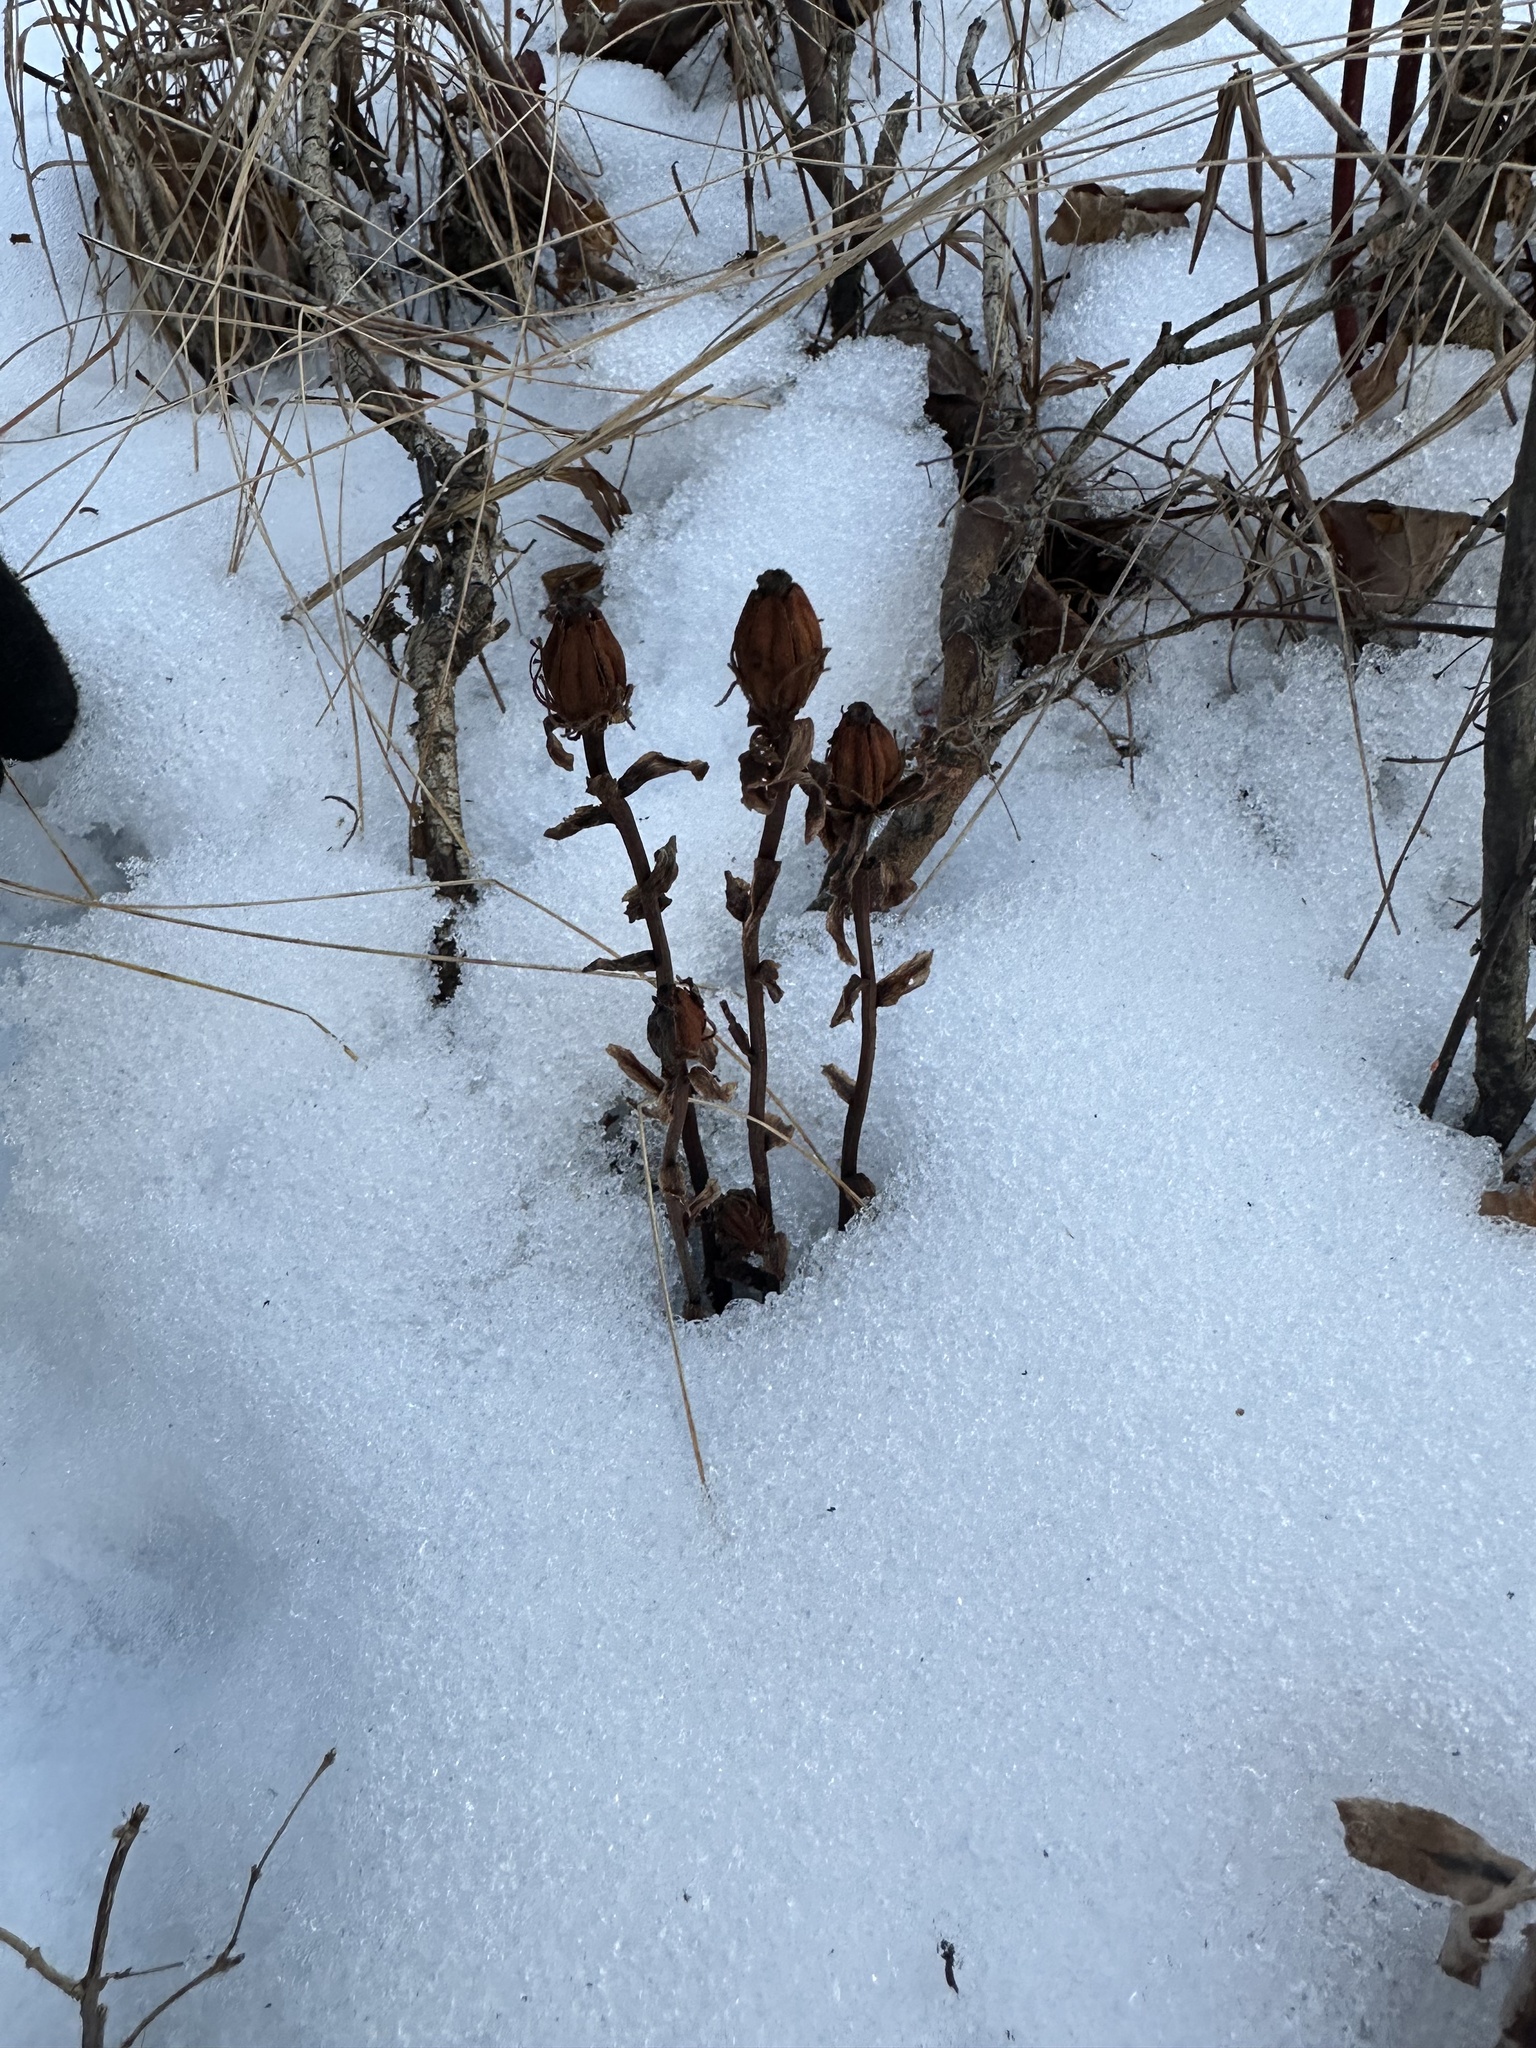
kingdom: Plantae
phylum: Tracheophyta
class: Magnoliopsida
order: Ericales
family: Ericaceae
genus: Monotropa
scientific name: Monotropa uniflora
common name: Convulsion root
